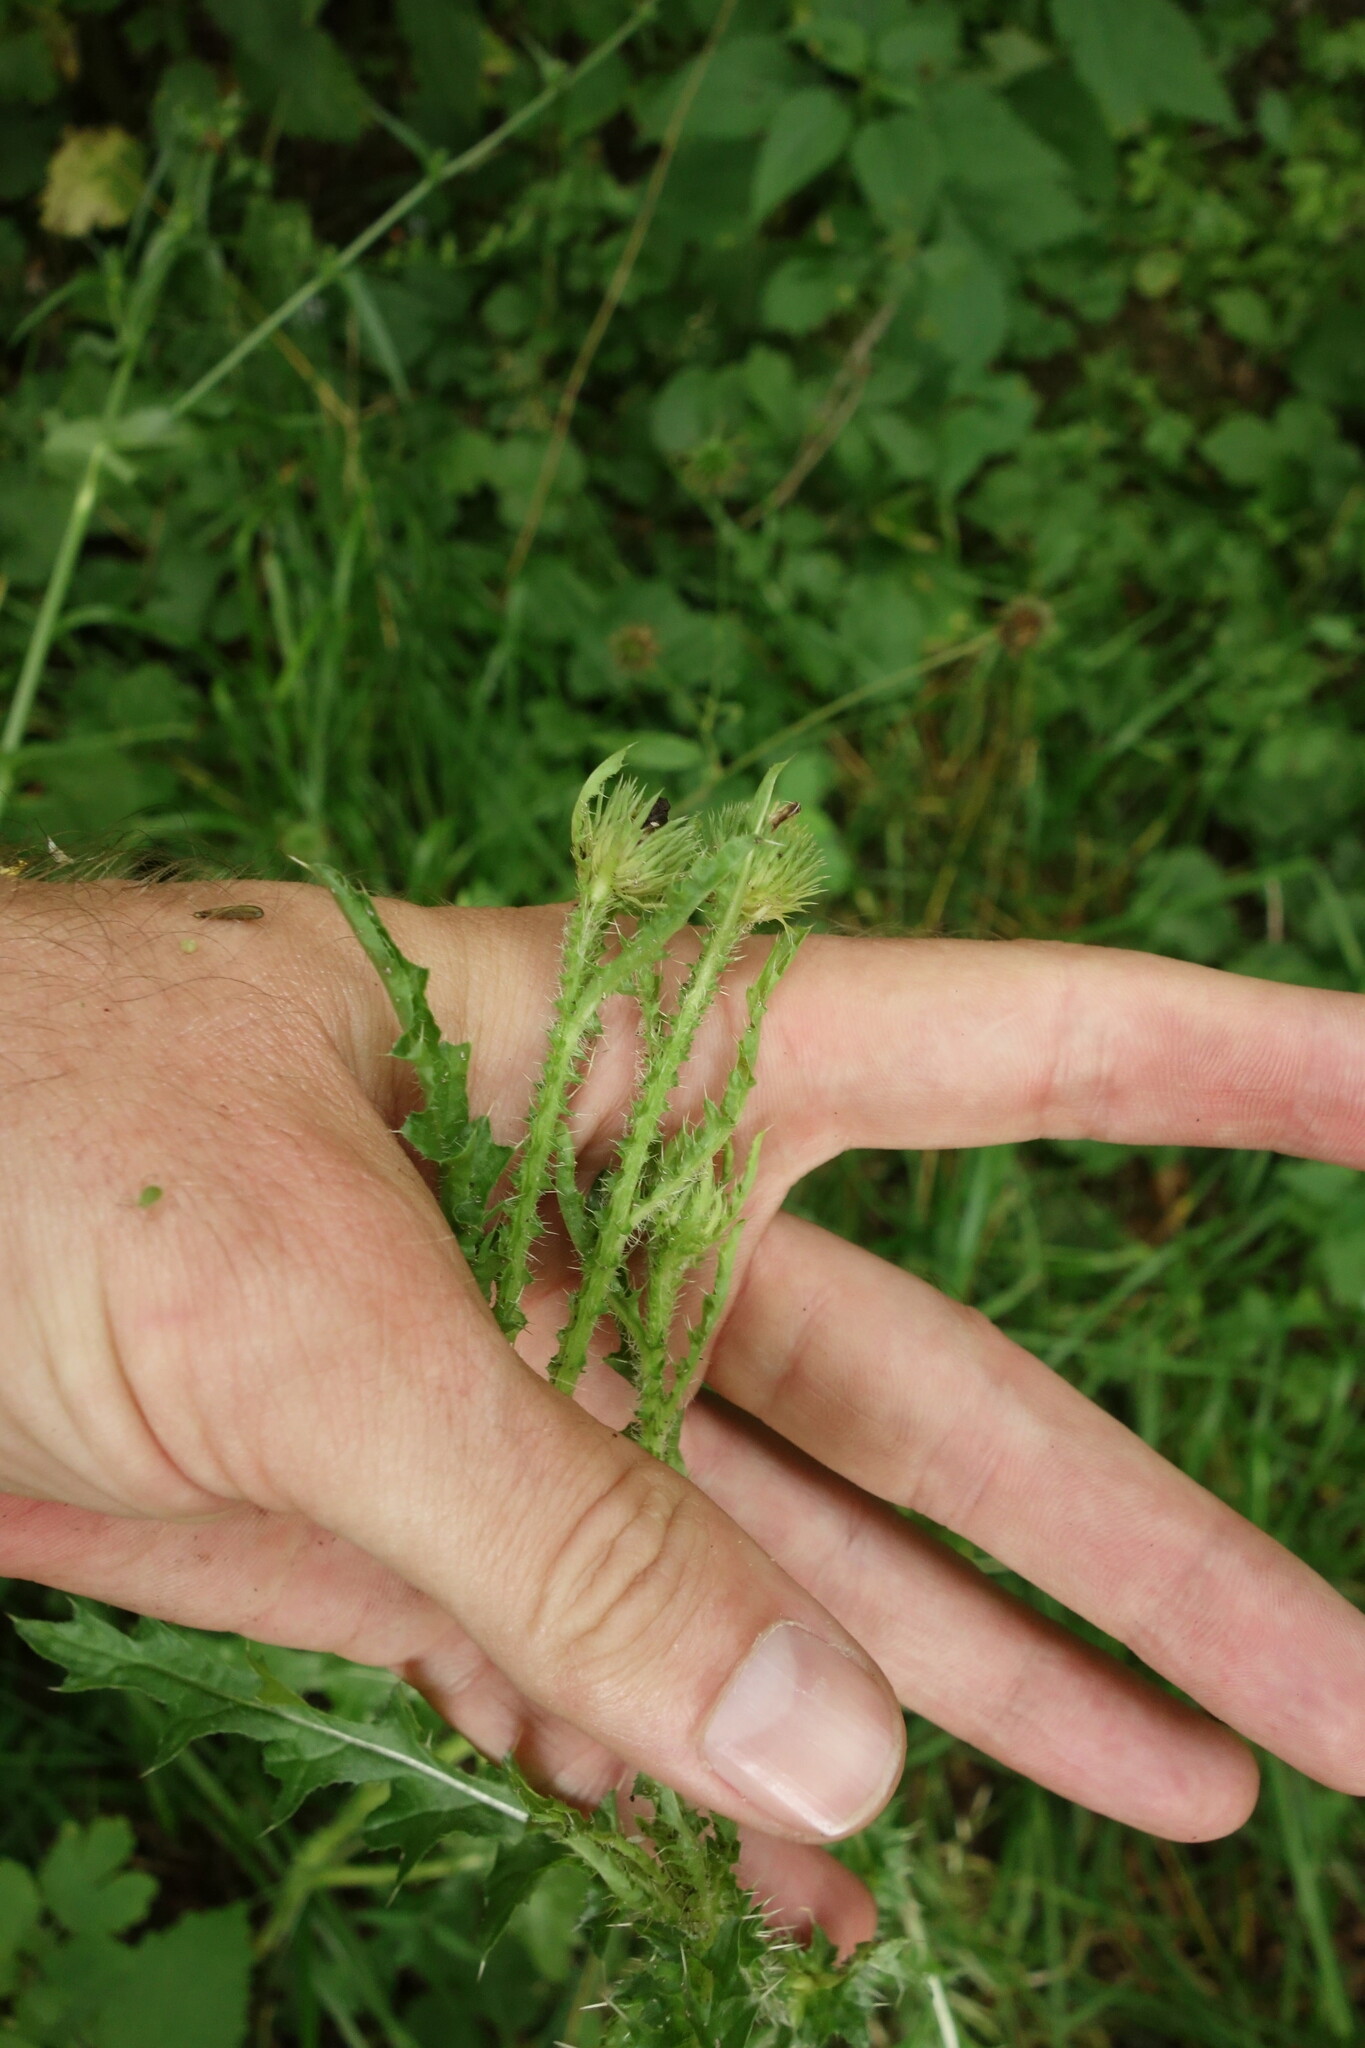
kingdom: Plantae
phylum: Tracheophyta
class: Magnoliopsida
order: Asterales
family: Asteraceae
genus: Carduus
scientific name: Carduus crispus
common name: Welted thistle
